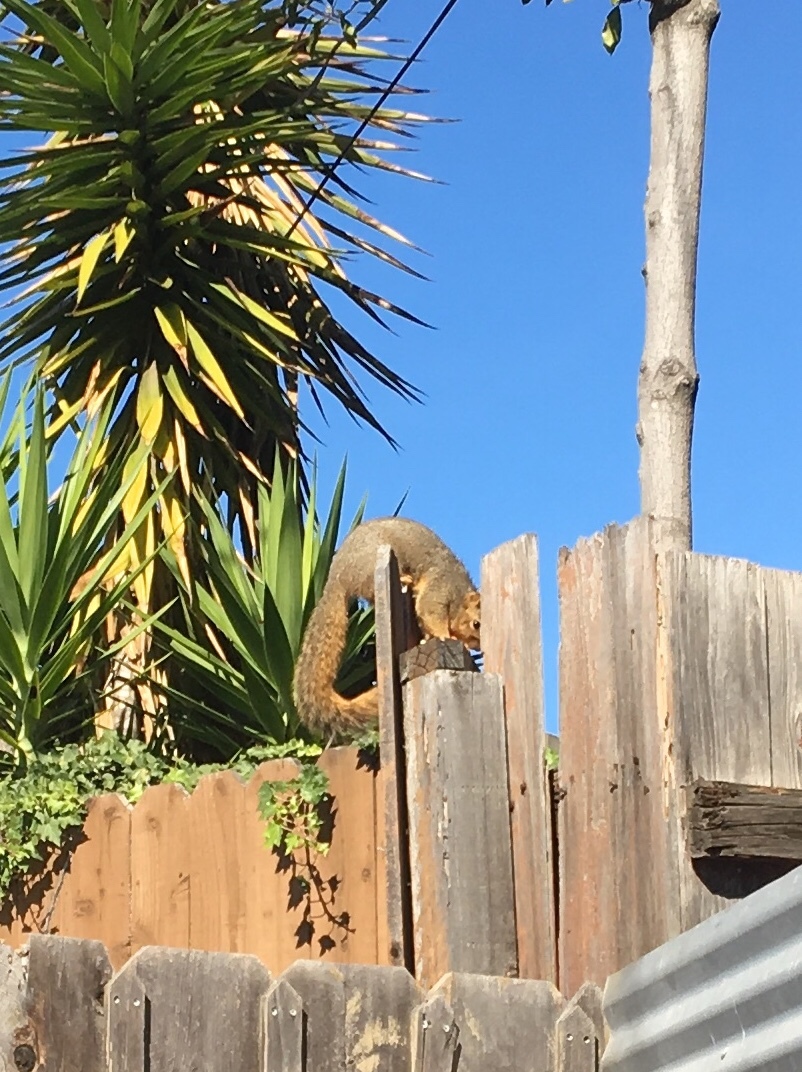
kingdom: Animalia
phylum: Chordata
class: Mammalia
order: Rodentia
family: Sciuridae
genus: Sciurus
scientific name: Sciurus niger
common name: Fox squirrel
